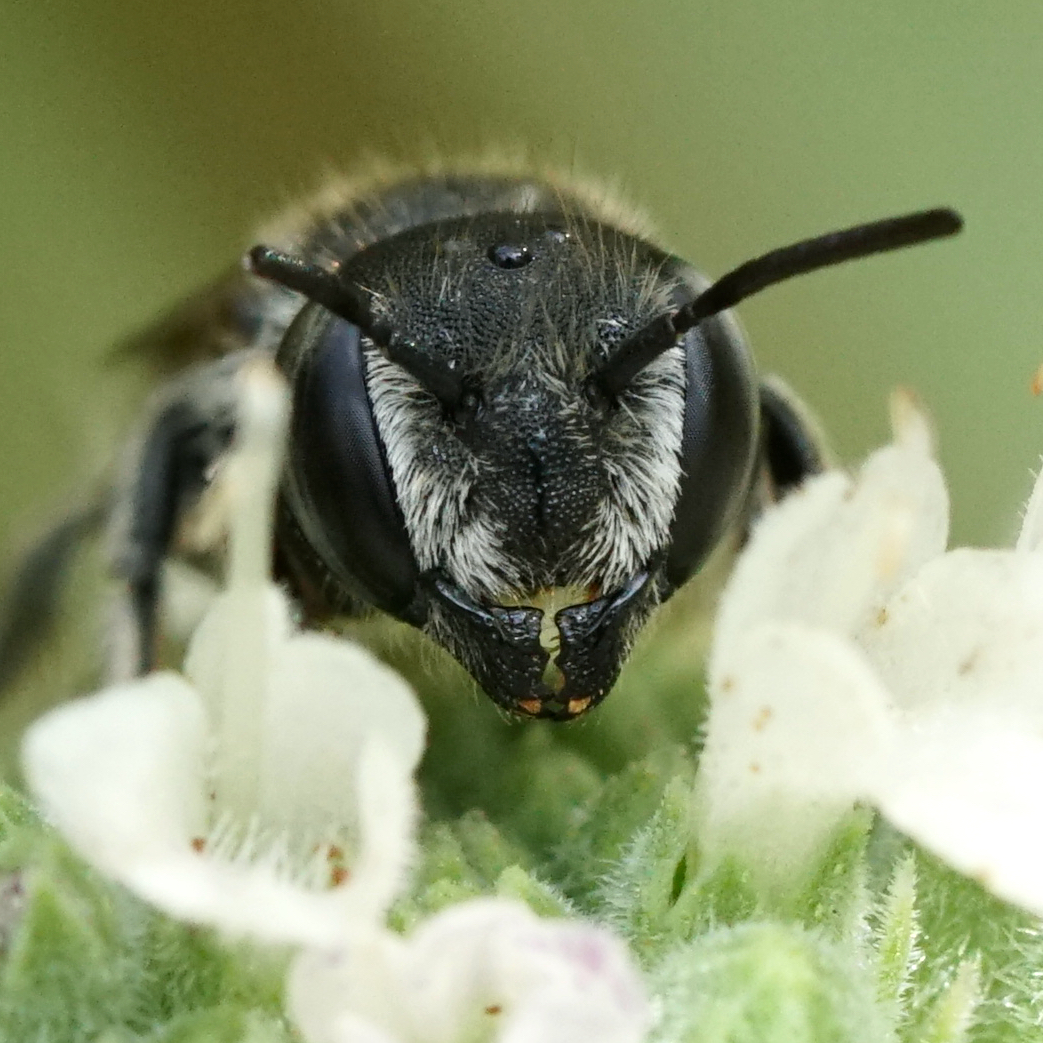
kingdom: Animalia
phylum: Arthropoda
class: Insecta
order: Hymenoptera
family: Megachilidae
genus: Megachile
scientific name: Megachile rotundata
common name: Alfalfa leafcutting bee
